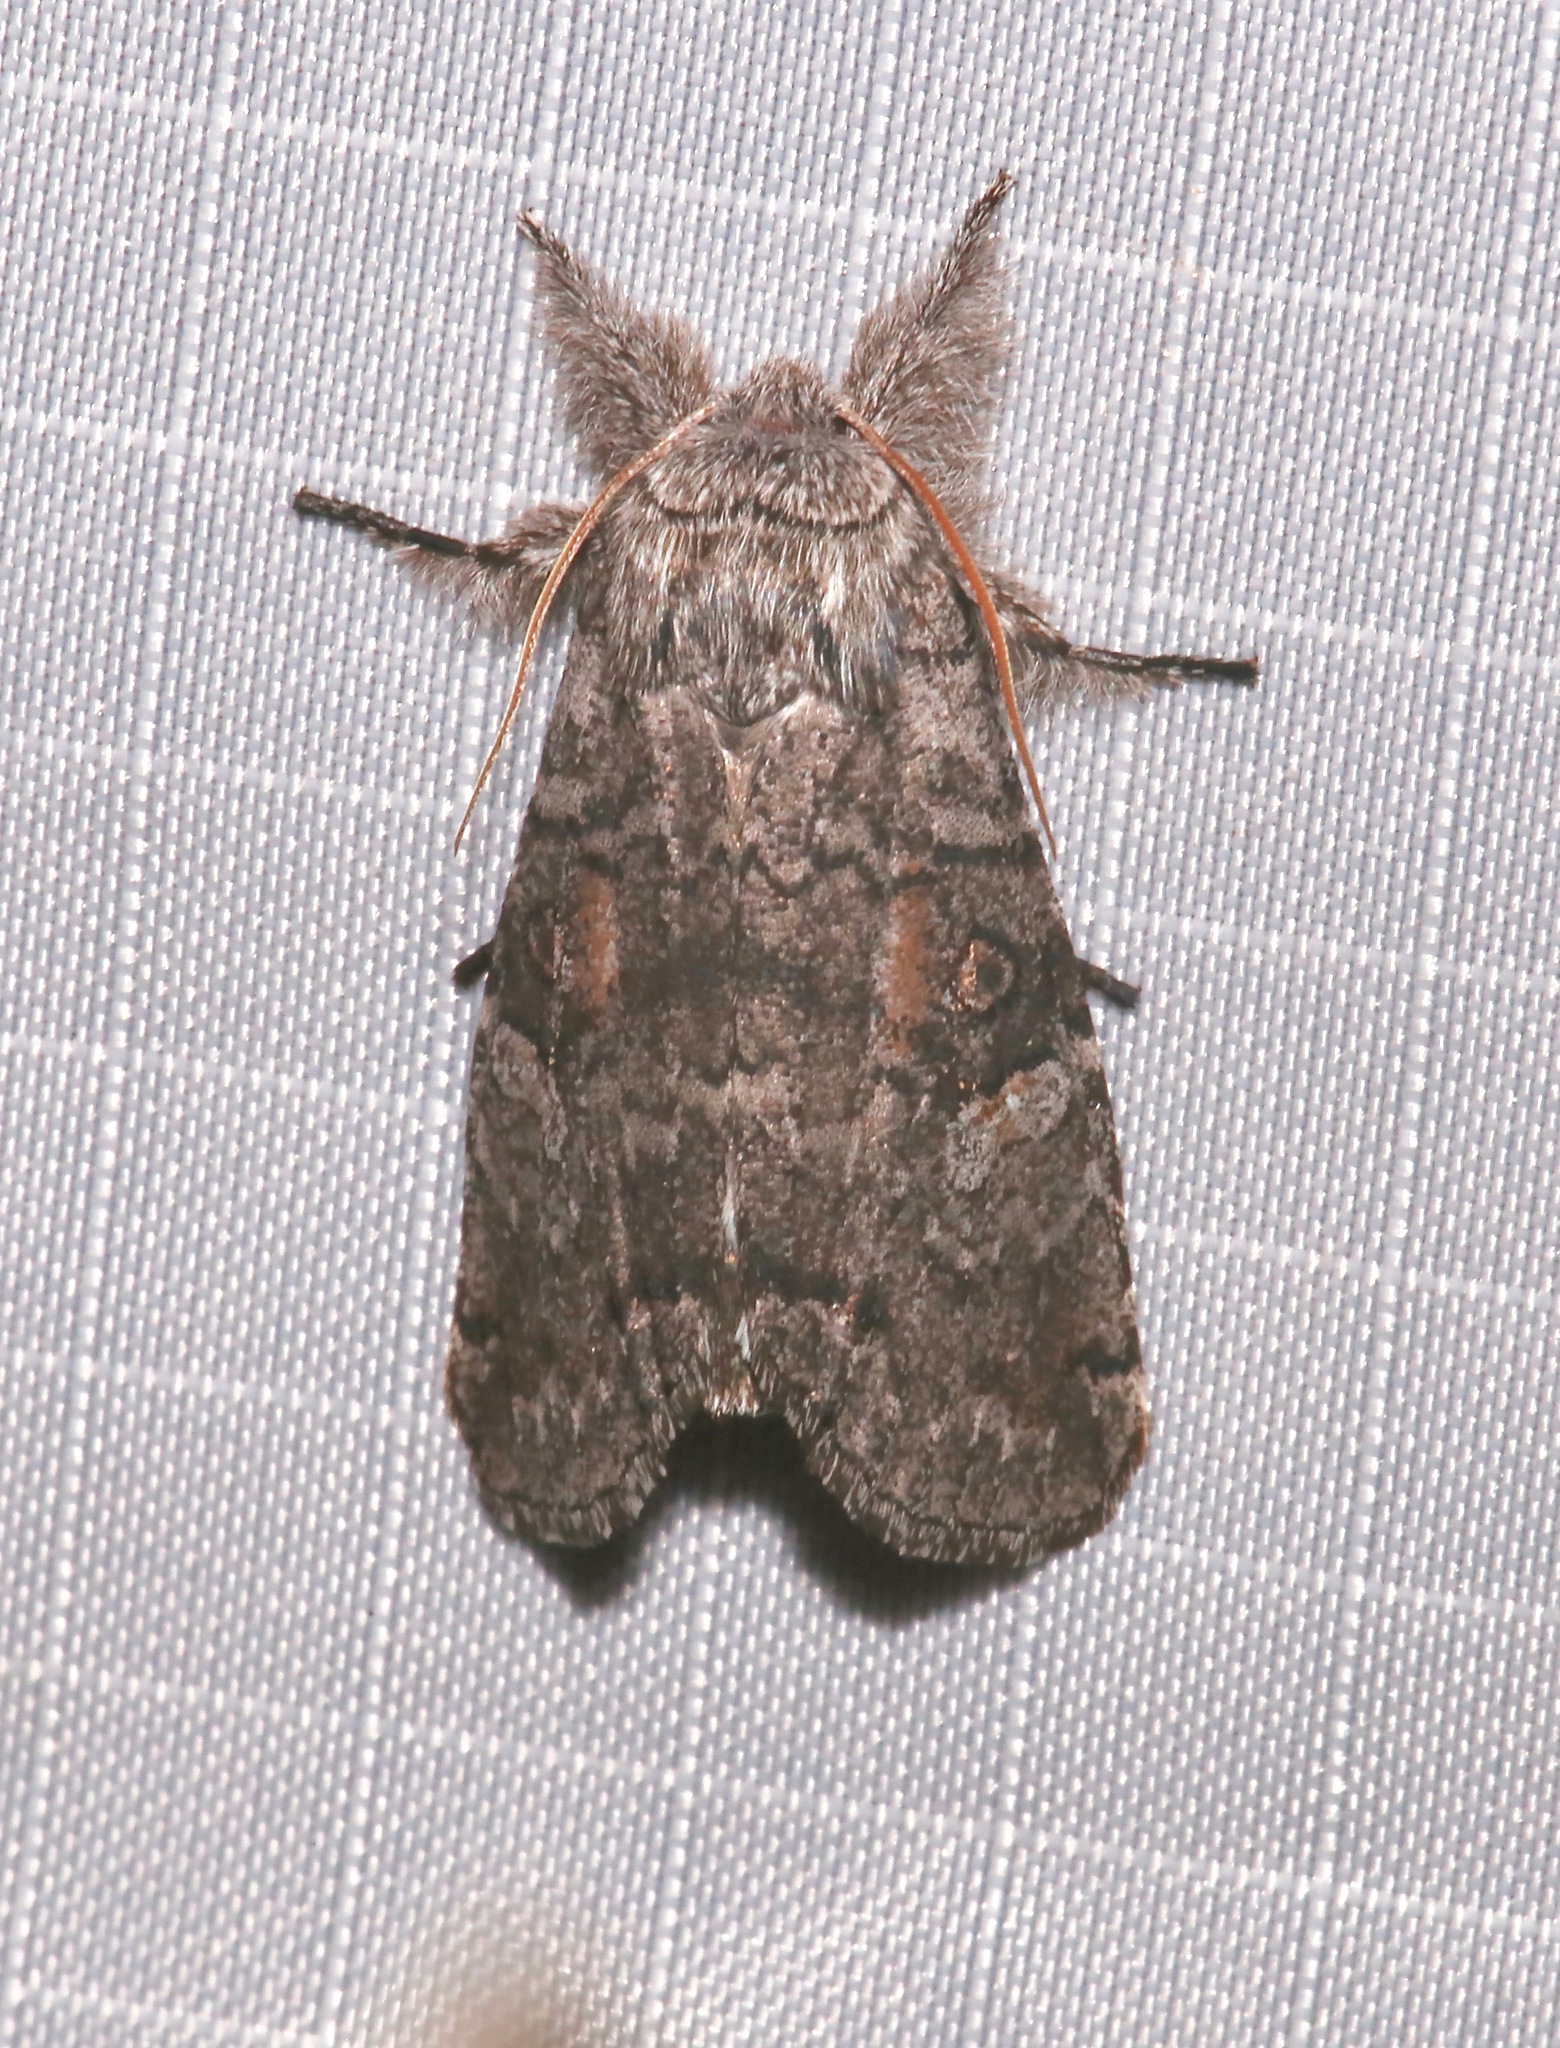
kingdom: Animalia
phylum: Arthropoda
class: Insecta
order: Lepidoptera
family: Noctuidae
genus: Meleneta
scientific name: Meleneta antennata
